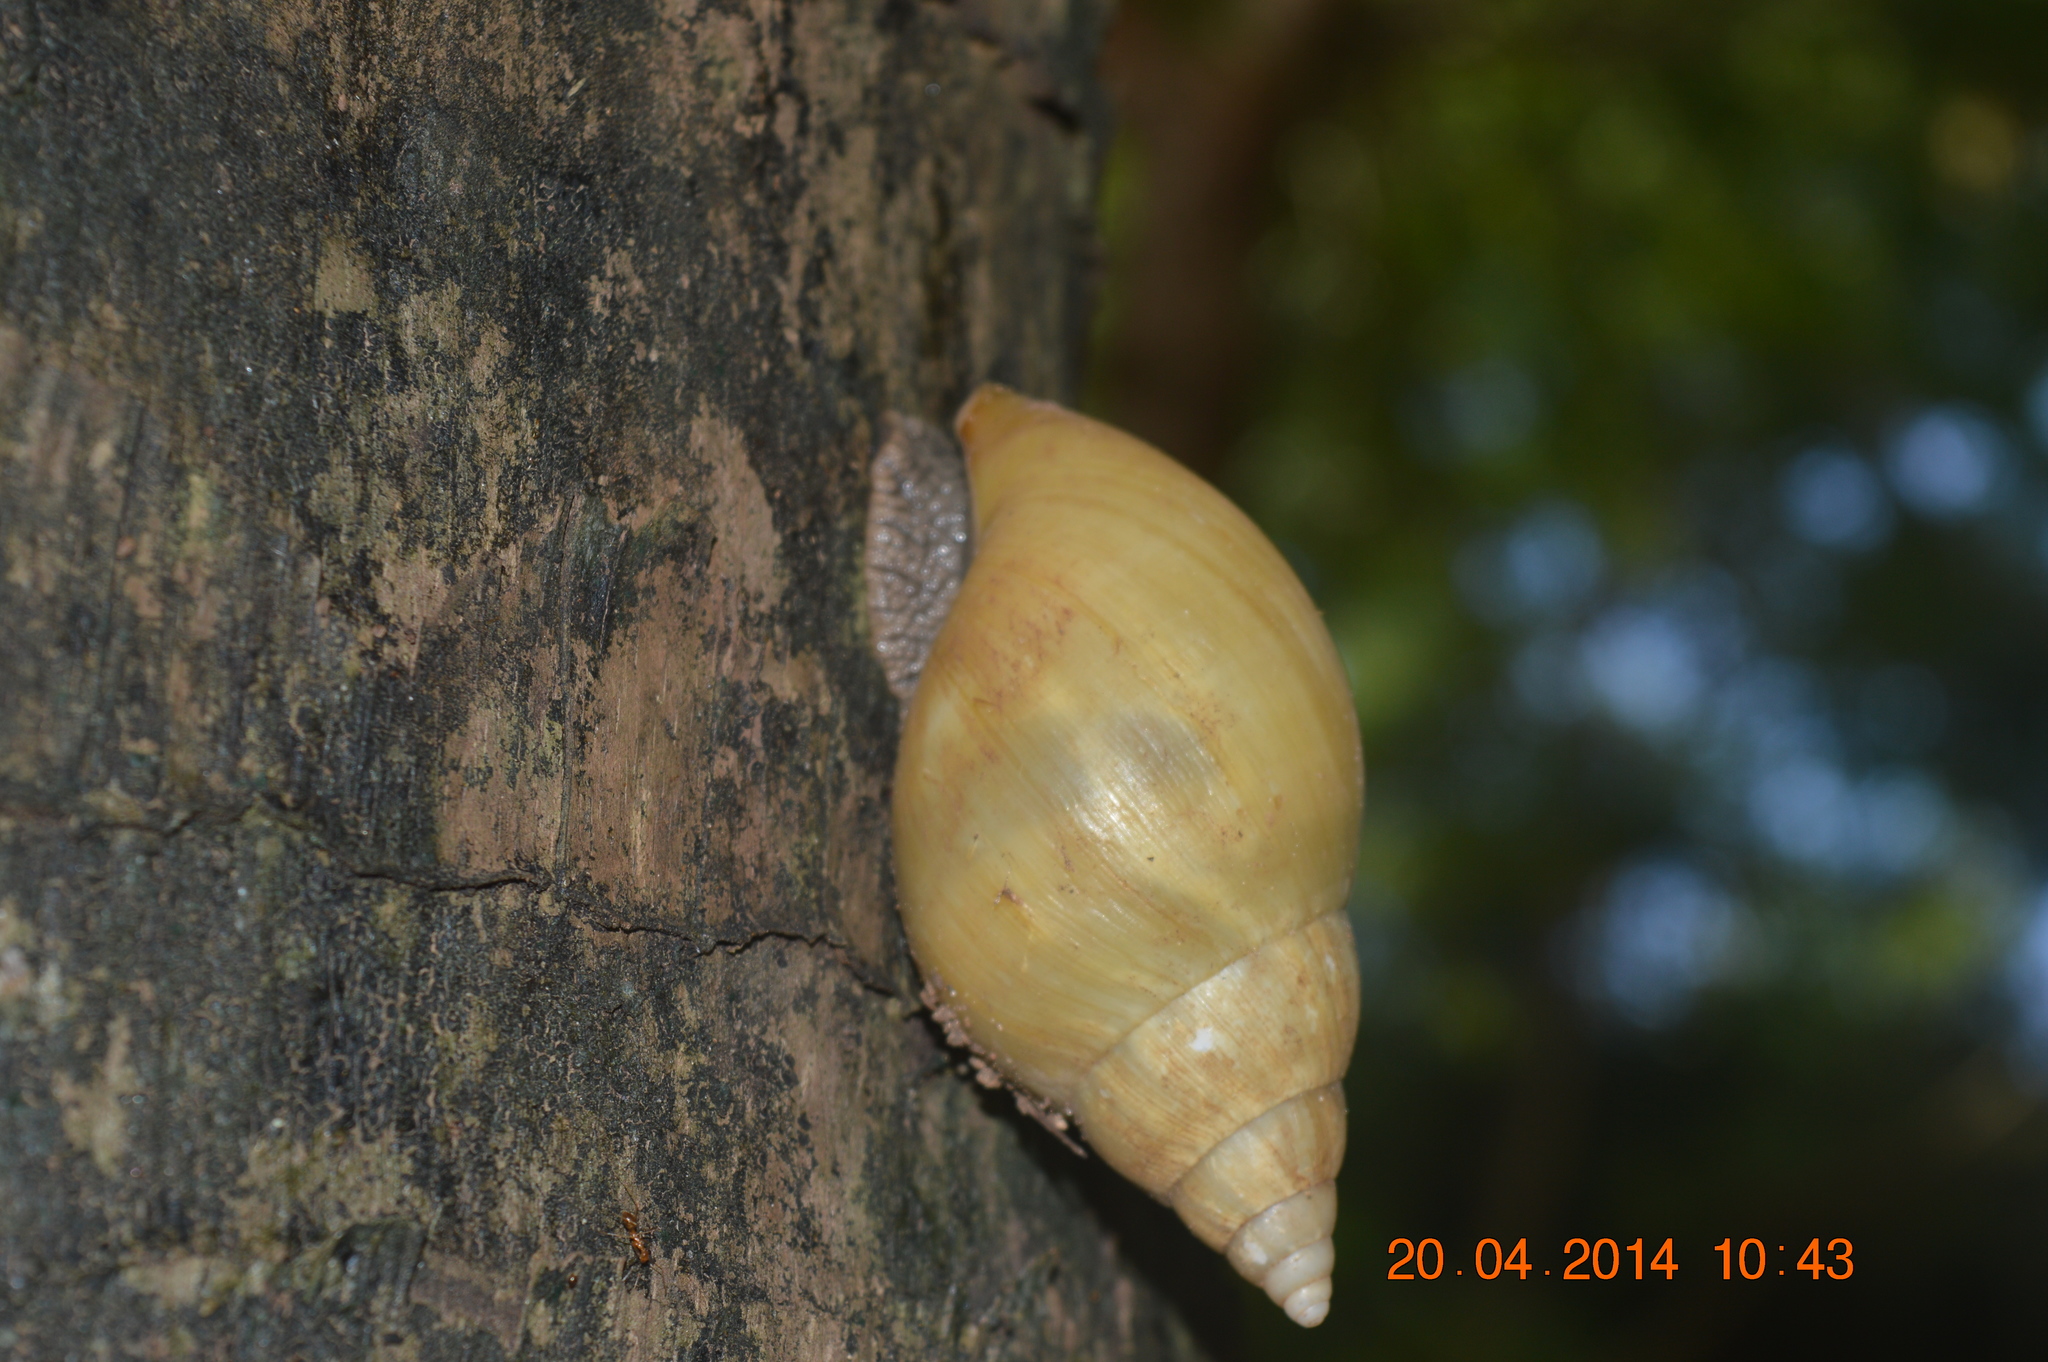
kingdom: Animalia
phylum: Mollusca
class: Gastropoda
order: Stylommatophora
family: Achatinidae
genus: Lissachatina
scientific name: Lissachatina fulica
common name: Giant african snail
